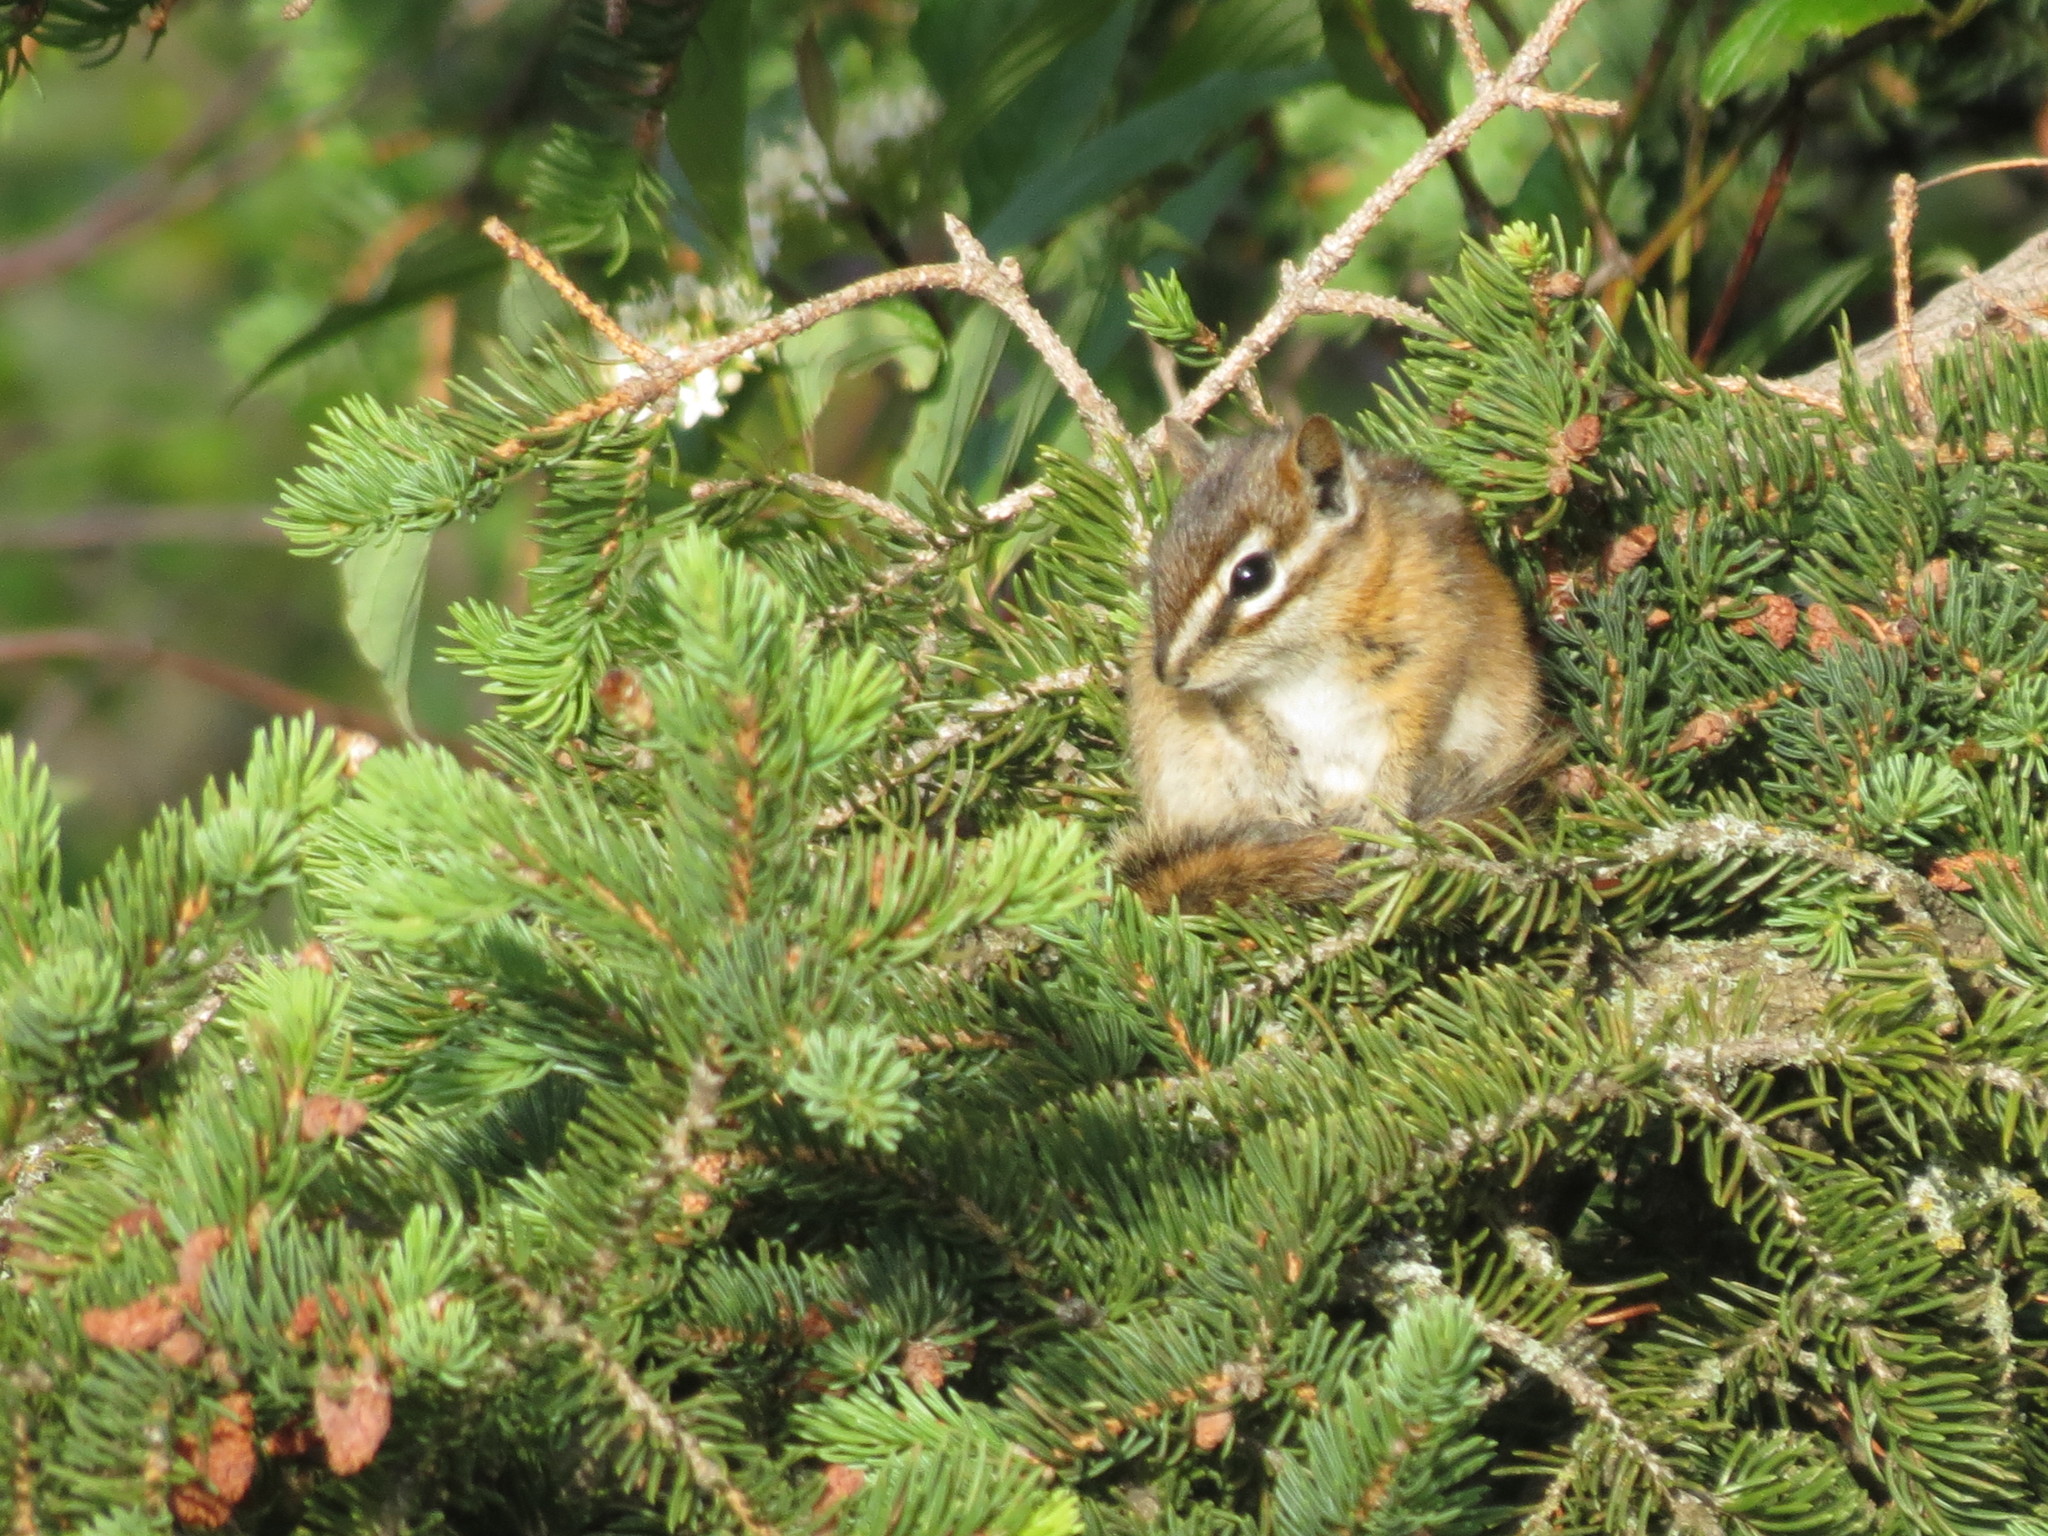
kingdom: Animalia
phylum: Chordata
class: Mammalia
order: Rodentia
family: Sciuridae
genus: Tamias
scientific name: Tamias minimus
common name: Least chipmunk
